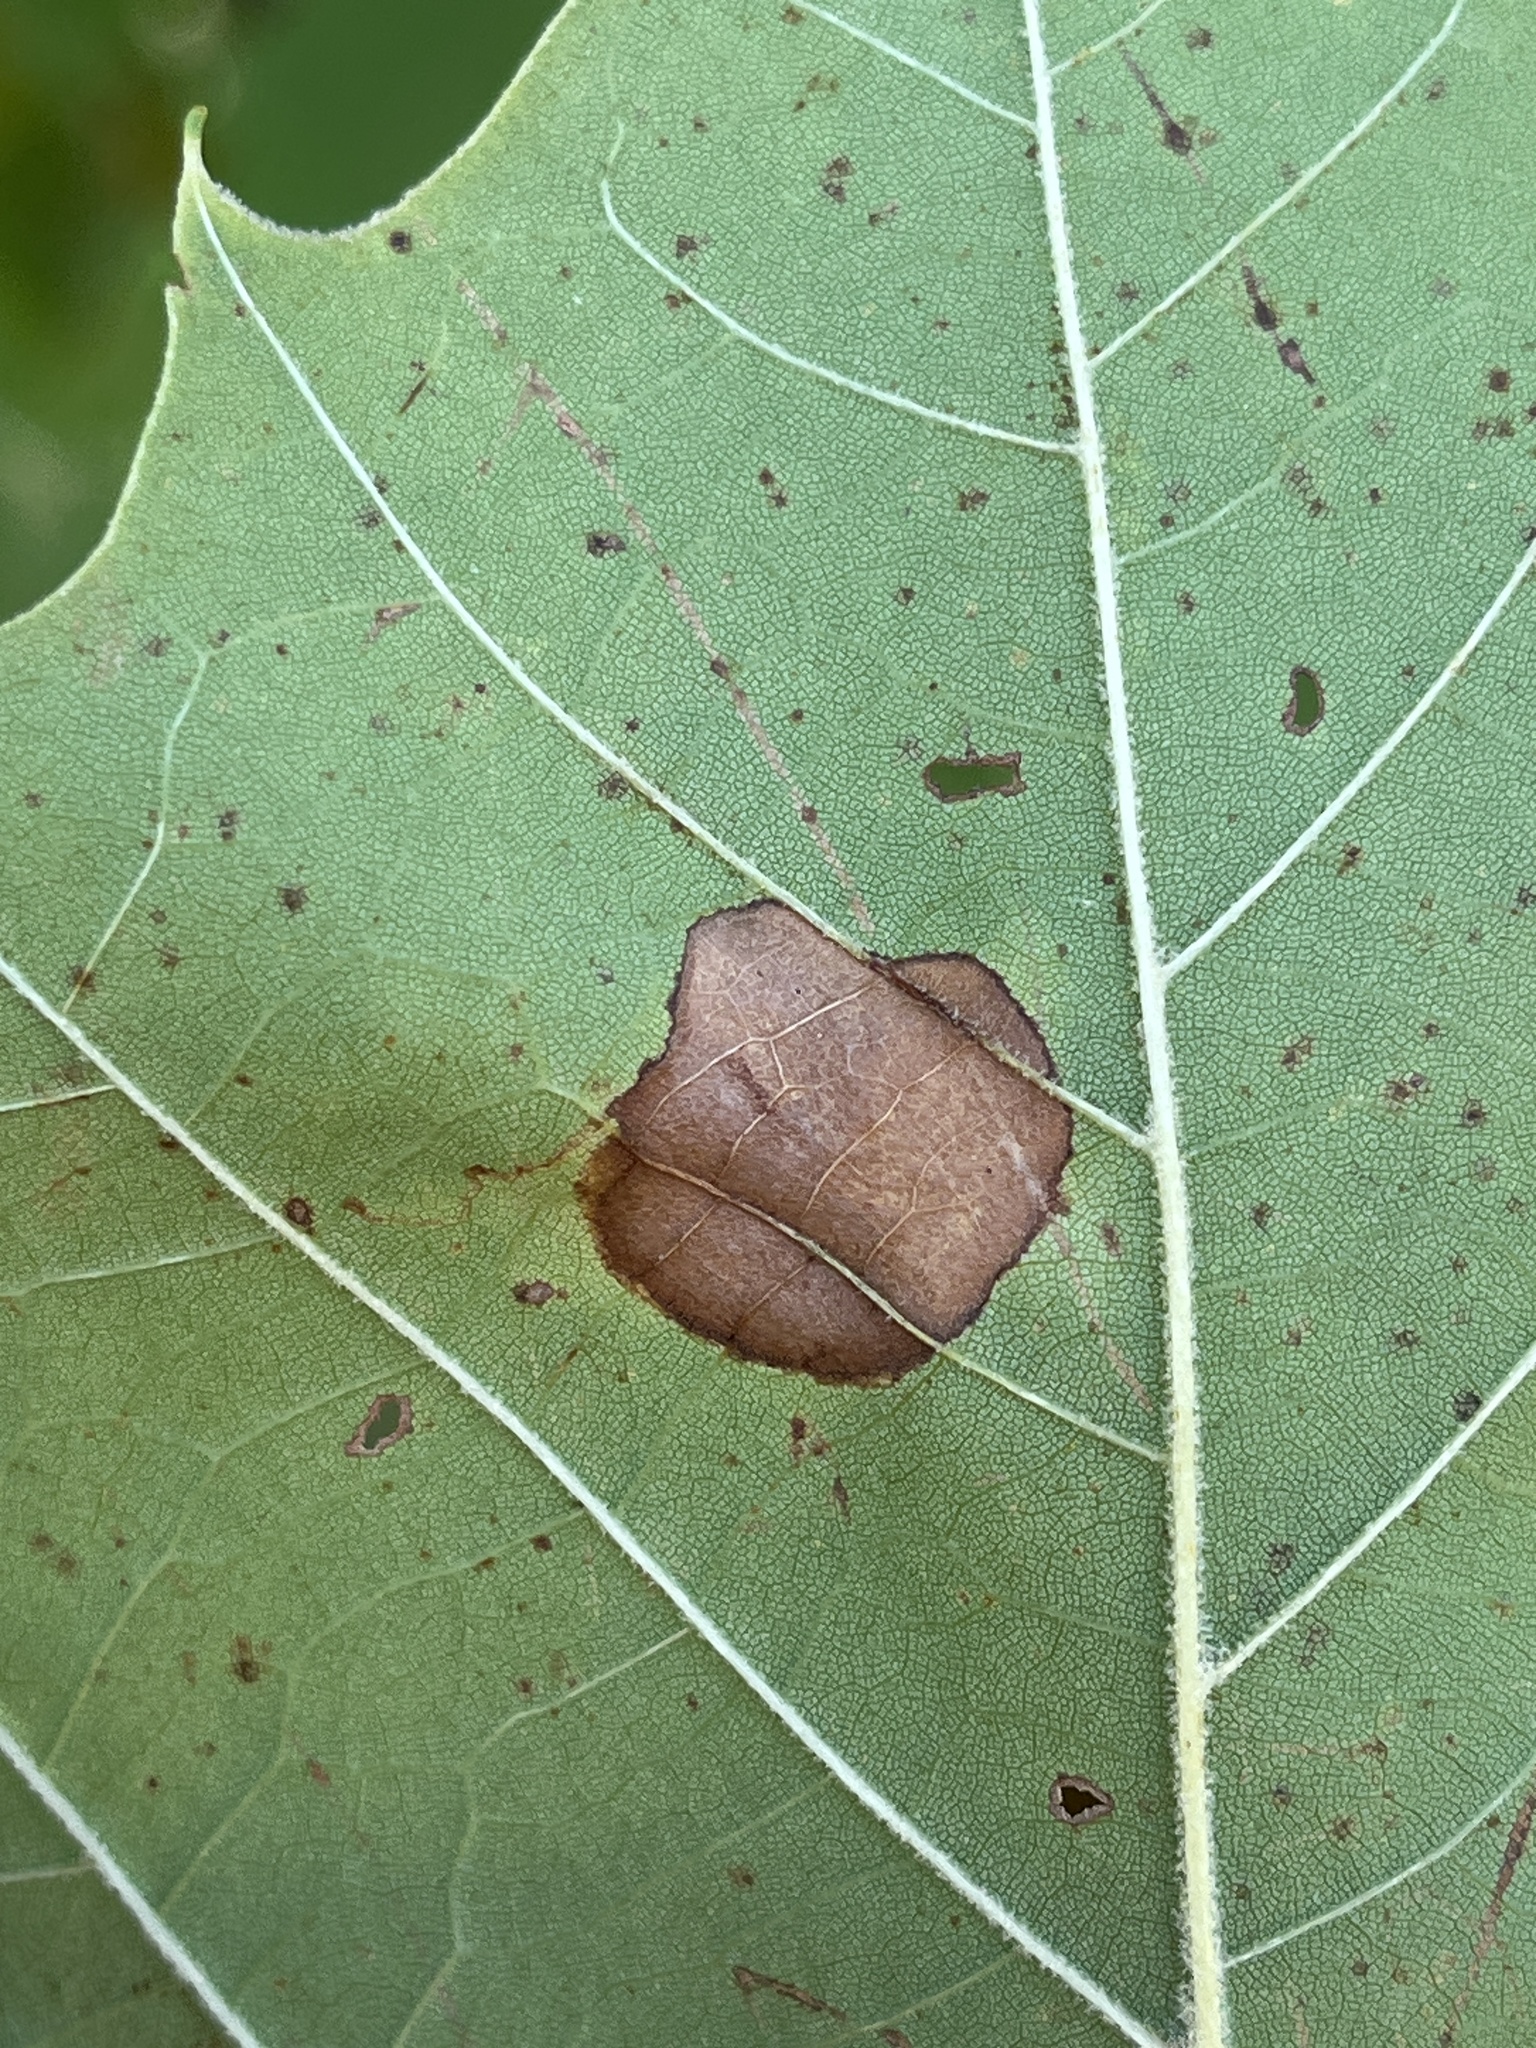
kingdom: Animalia
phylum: Arthropoda
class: Insecta
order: Lepidoptera
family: Nepticulidae
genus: Ectoedemia
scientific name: Ectoedemia platanella
